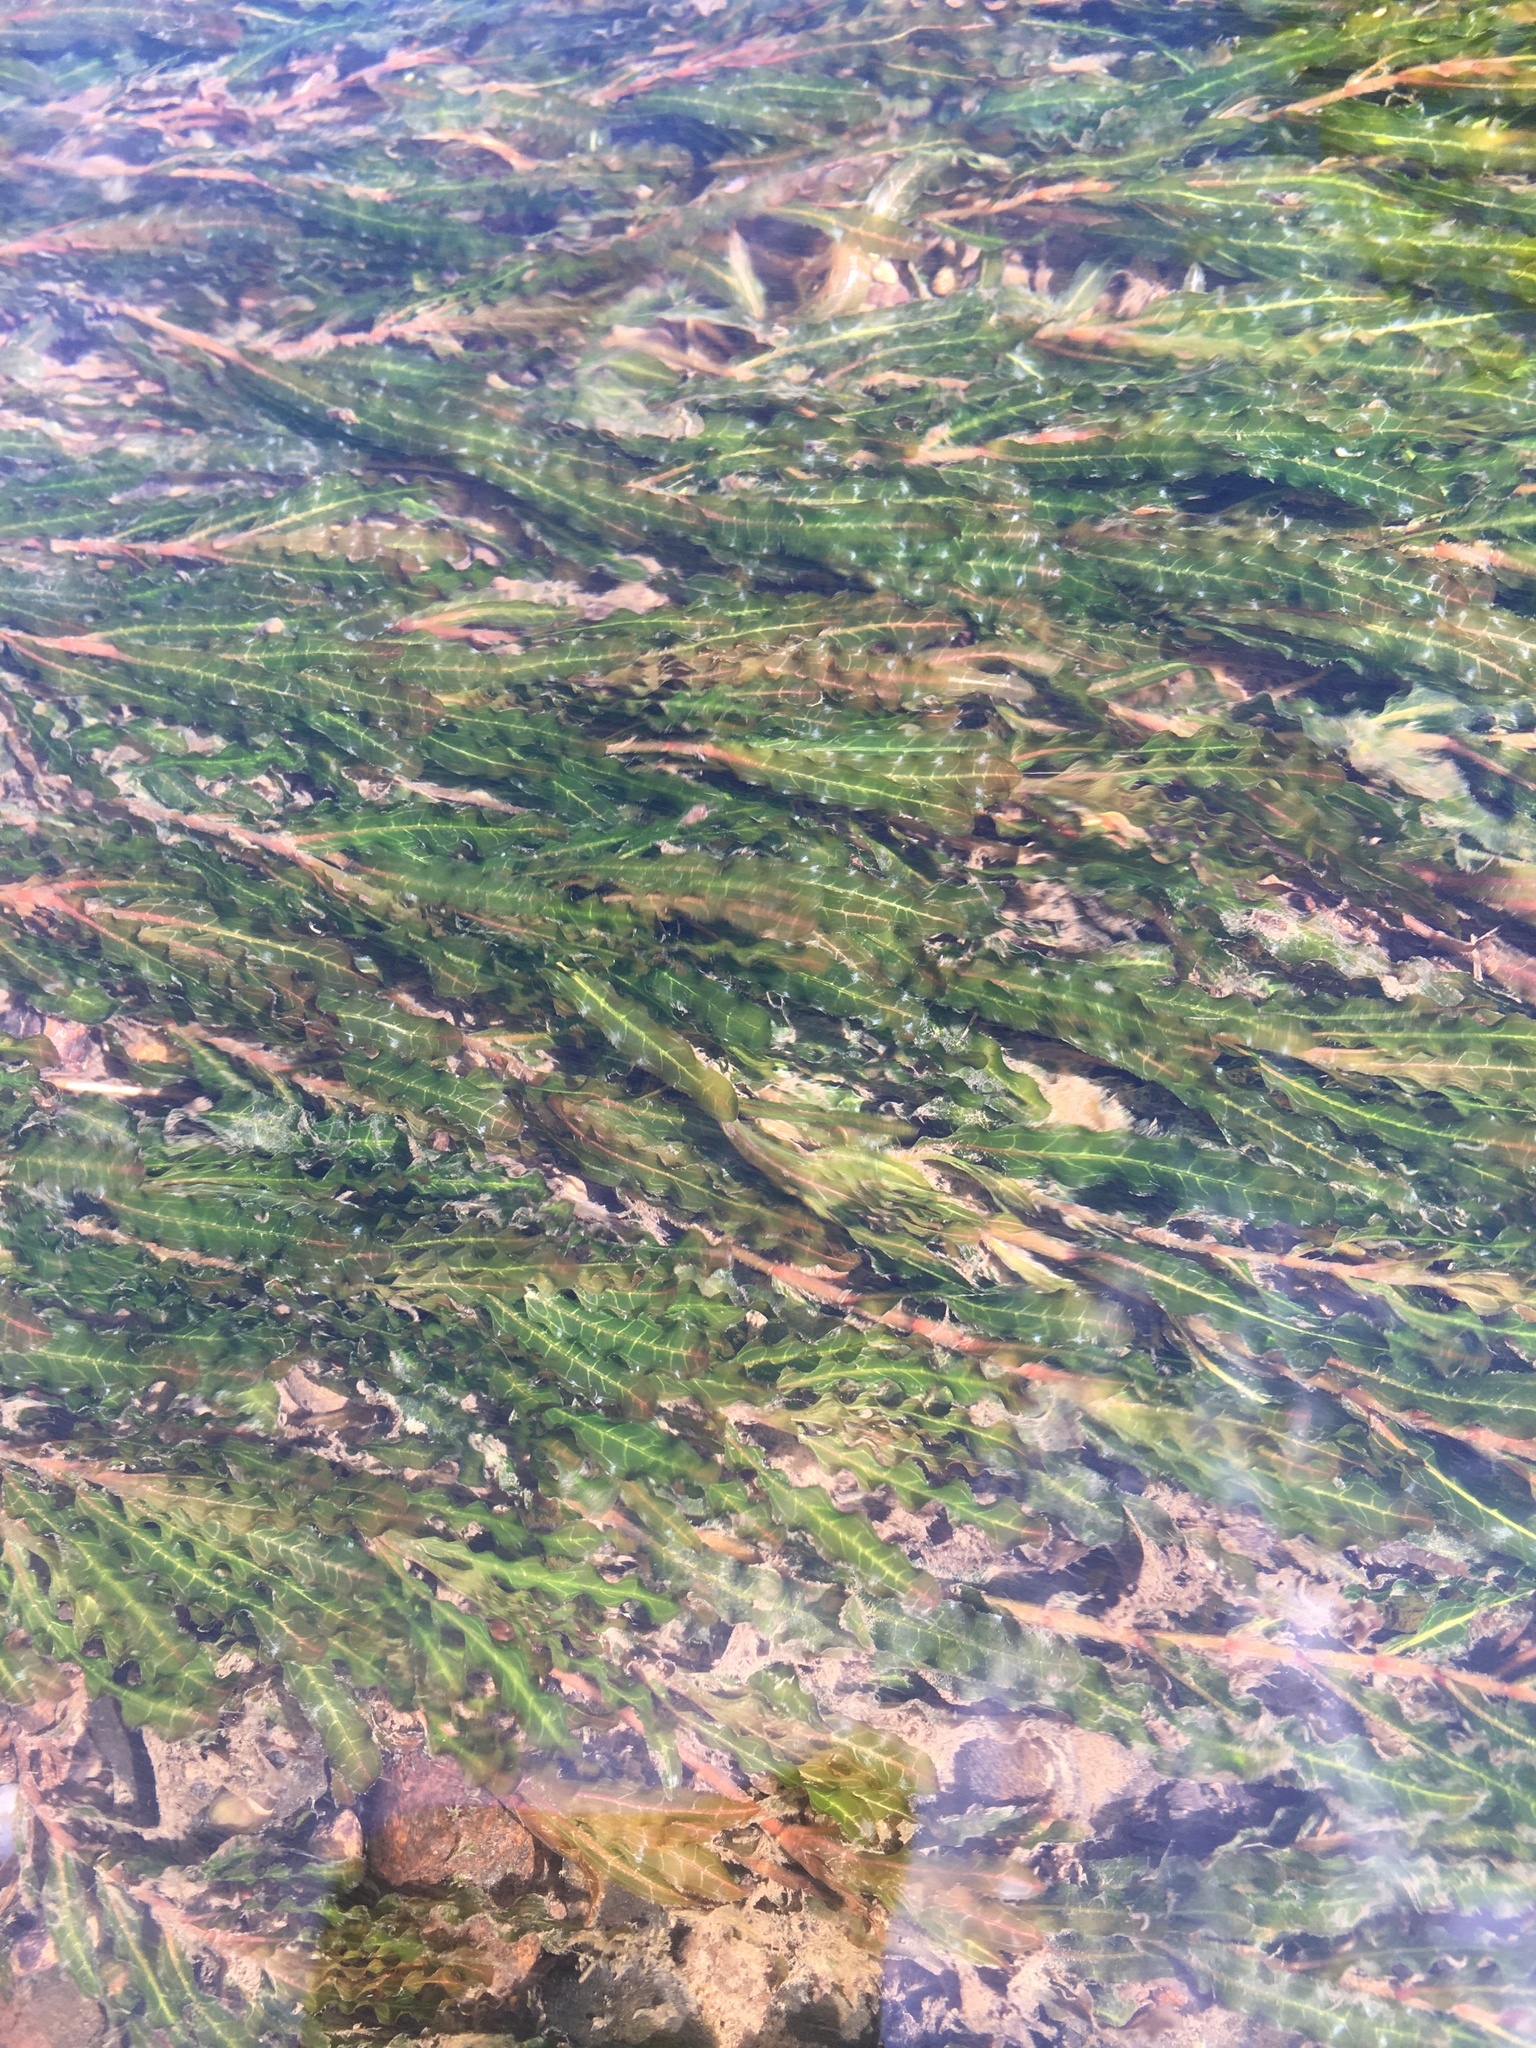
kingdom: Plantae
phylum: Tracheophyta
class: Liliopsida
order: Alismatales
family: Potamogetonaceae
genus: Potamogeton
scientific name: Potamogeton crispus
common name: Curled pondweed
